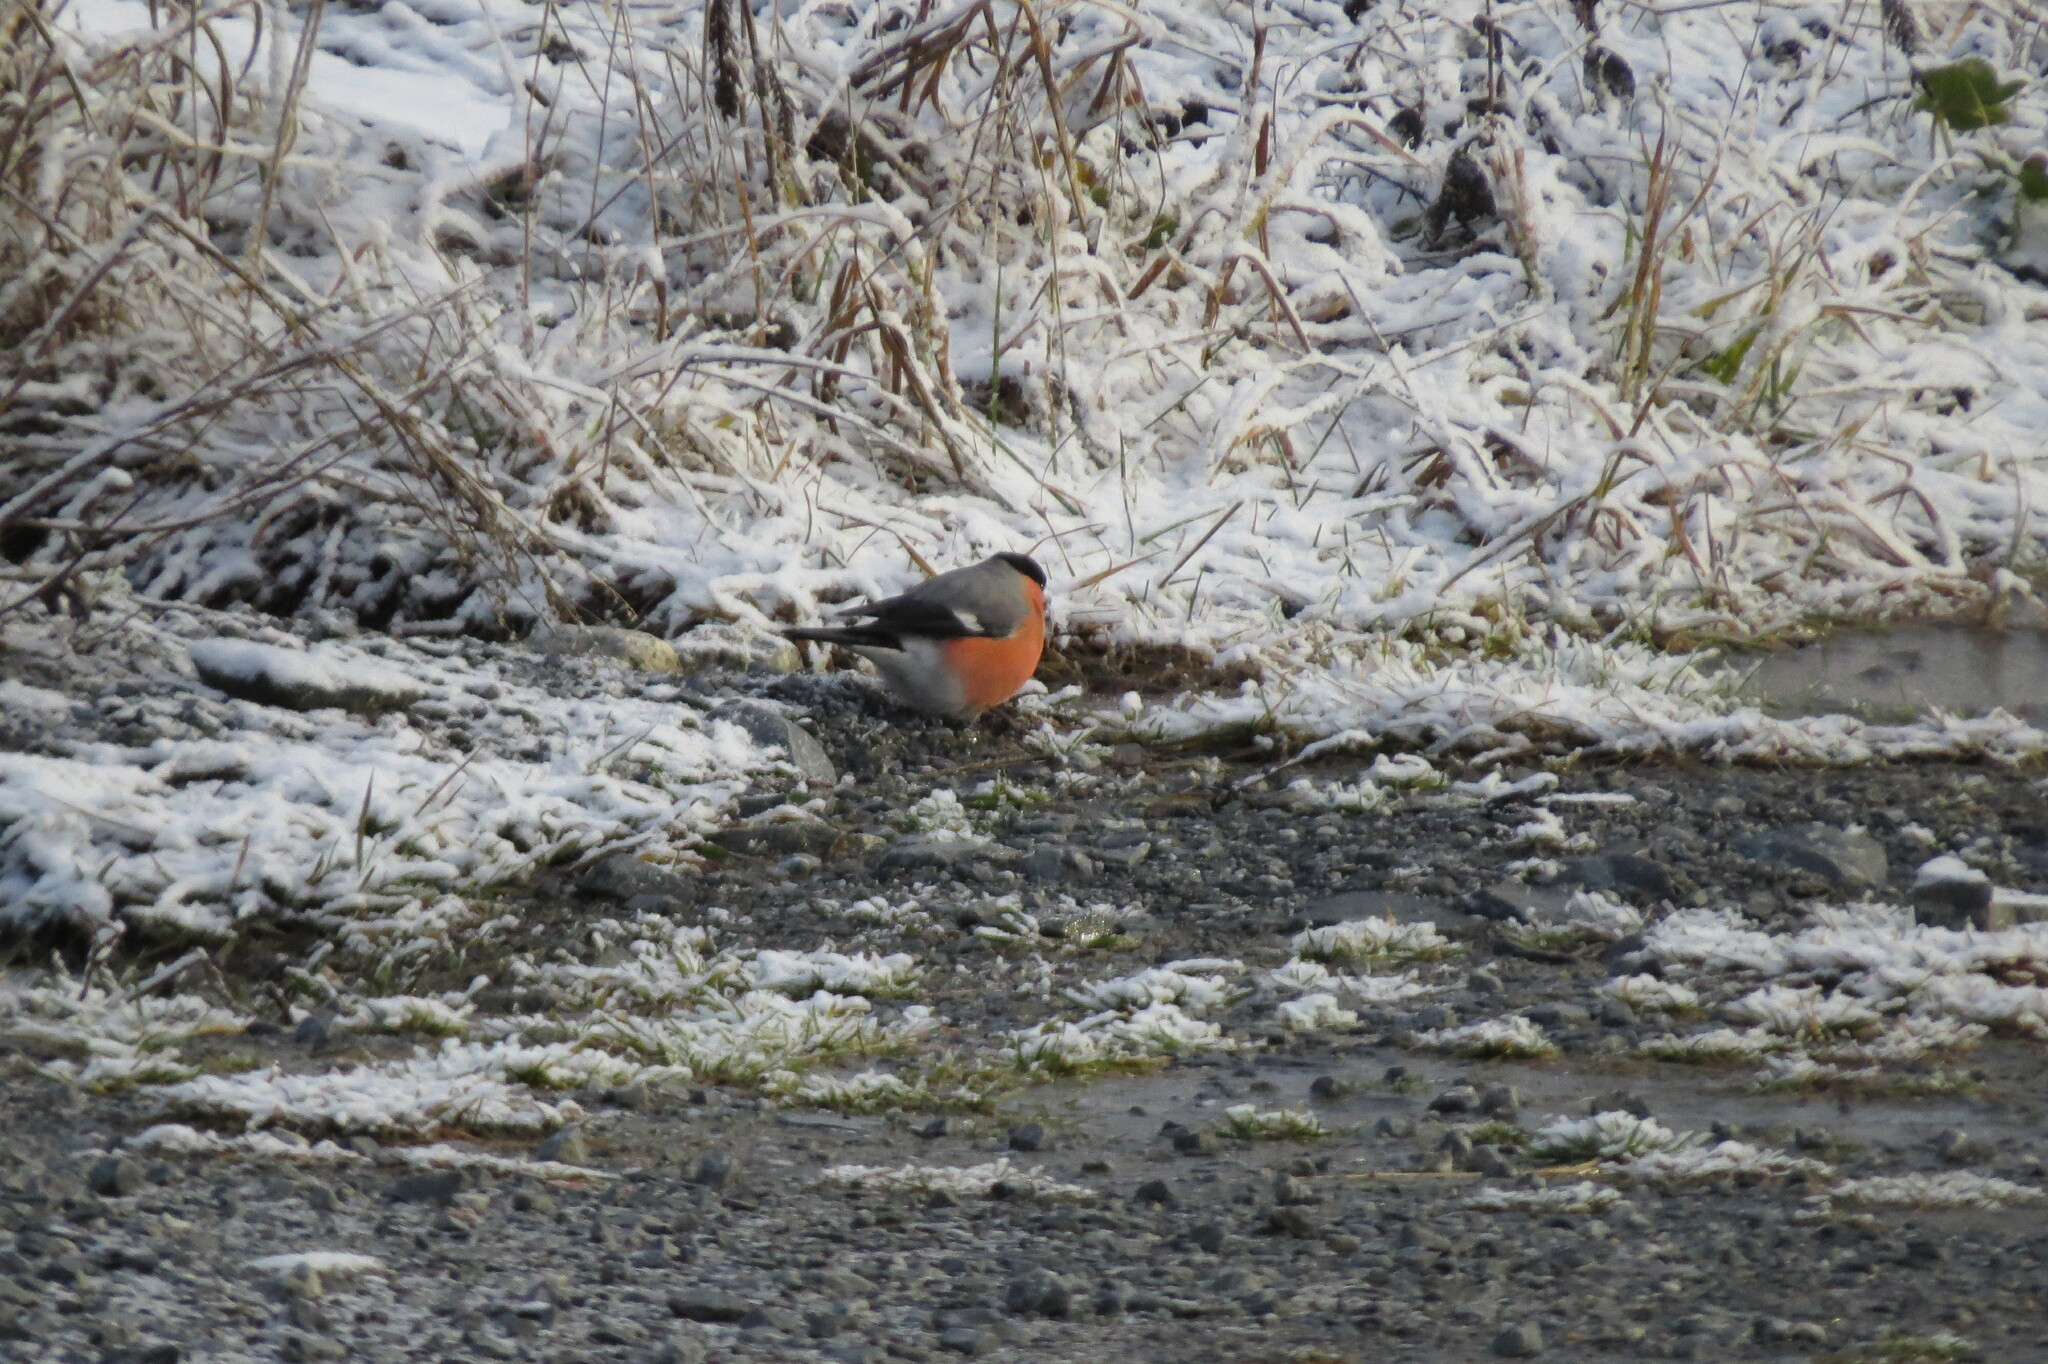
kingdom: Animalia
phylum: Chordata
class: Aves
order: Passeriformes
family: Fringillidae
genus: Pyrrhula
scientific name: Pyrrhula pyrrhula
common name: Eurasian bullfinch
